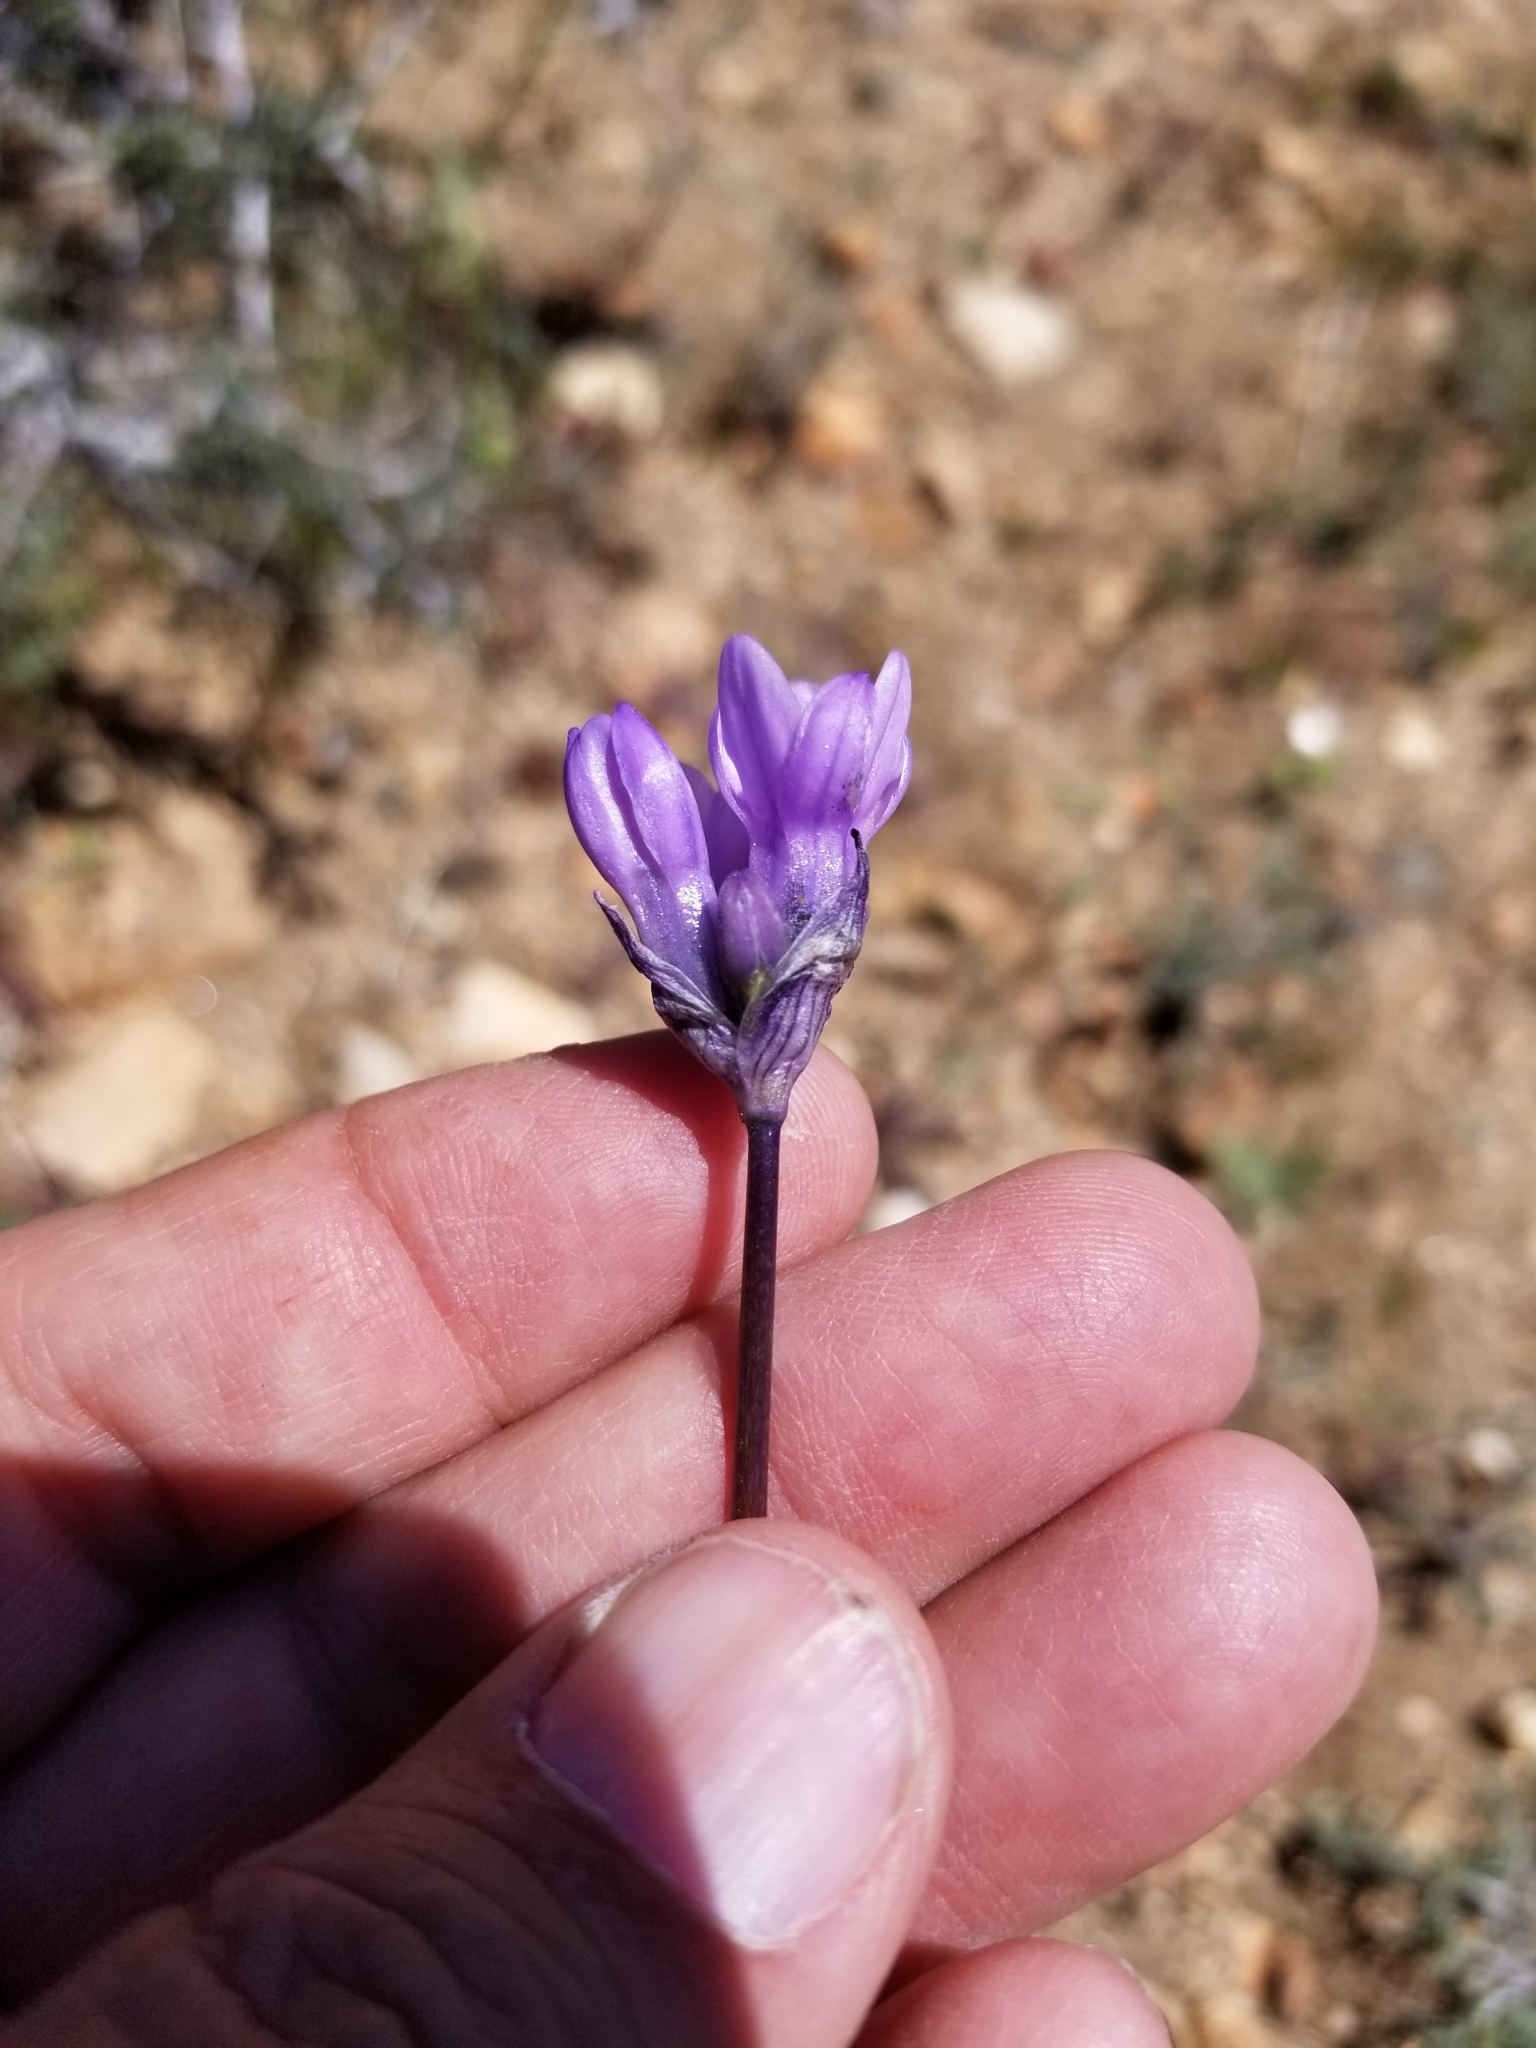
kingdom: Plantae
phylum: Tracheophyta
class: Liliopsida
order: Asparagales
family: Asparagaceae
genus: Dipterostemon
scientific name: Dipterostemon capitatus
